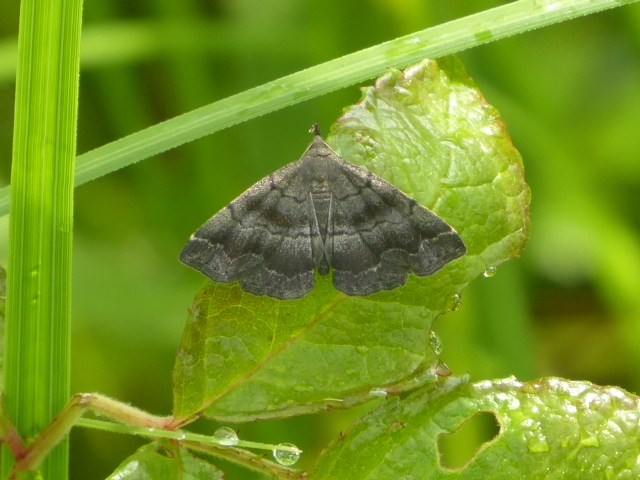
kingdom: Animalia
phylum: Arthropoda
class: Insecta
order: Lepidoptera
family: Erebidae
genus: Phalaenostola
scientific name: Phalaenostola larentioides
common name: Black-banded owlet
